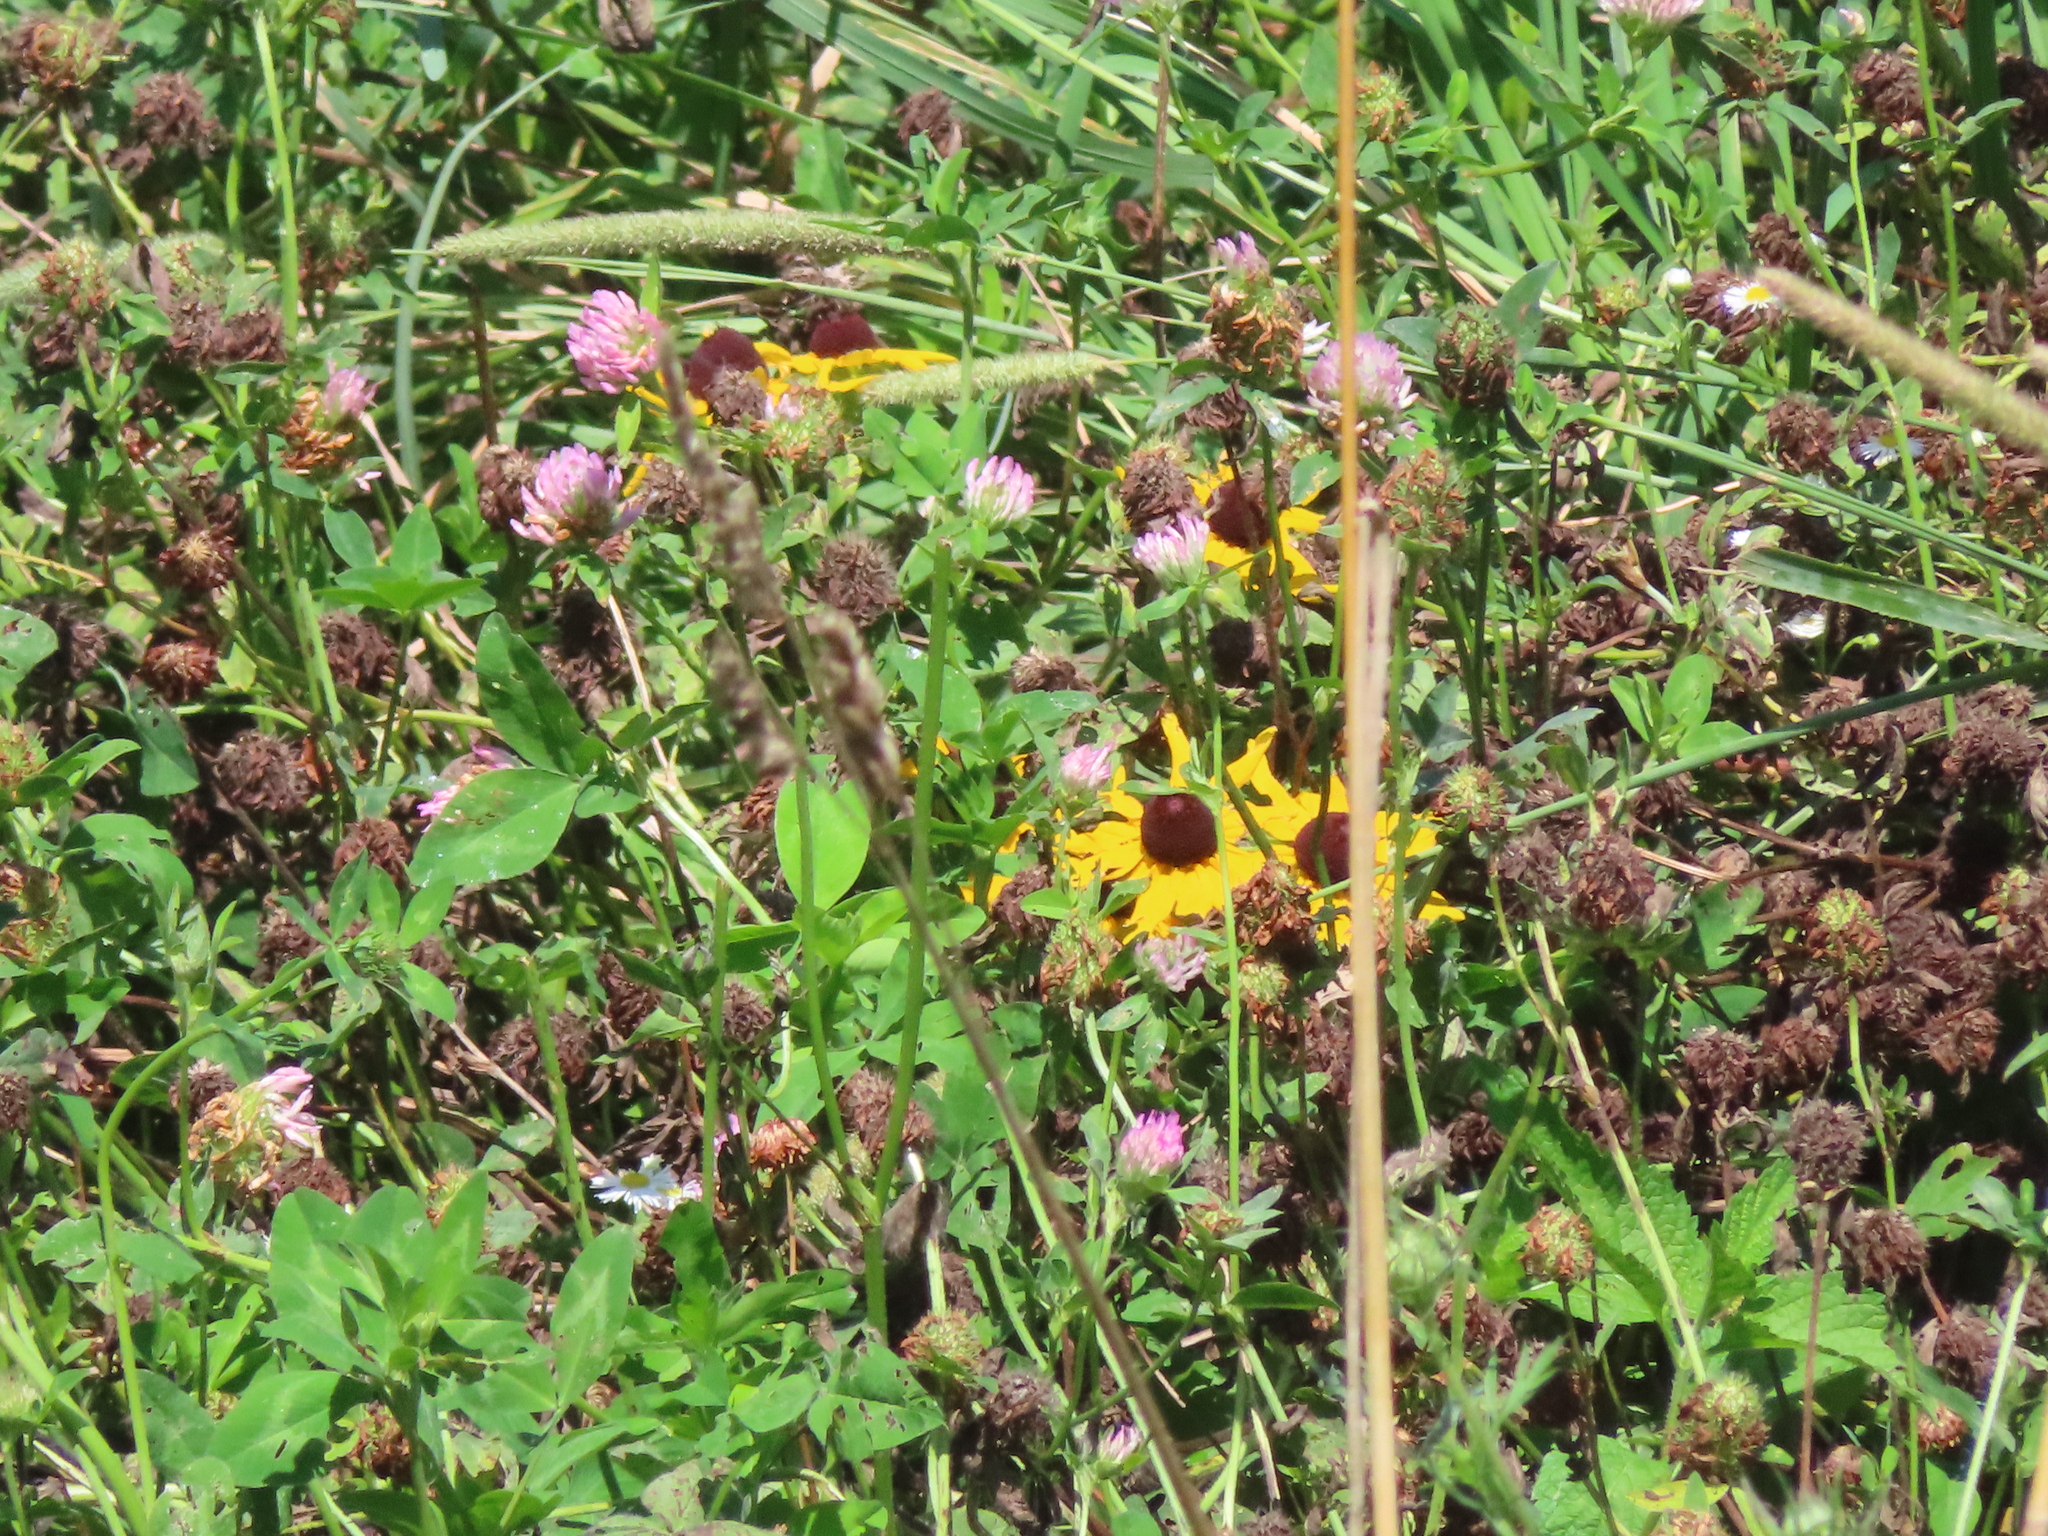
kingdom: Plantae
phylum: Tracheophyta
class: Magnoliopsida
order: Fabales
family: Fabaceae
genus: Trifolium
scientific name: Trifolium pratense
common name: Red clover
